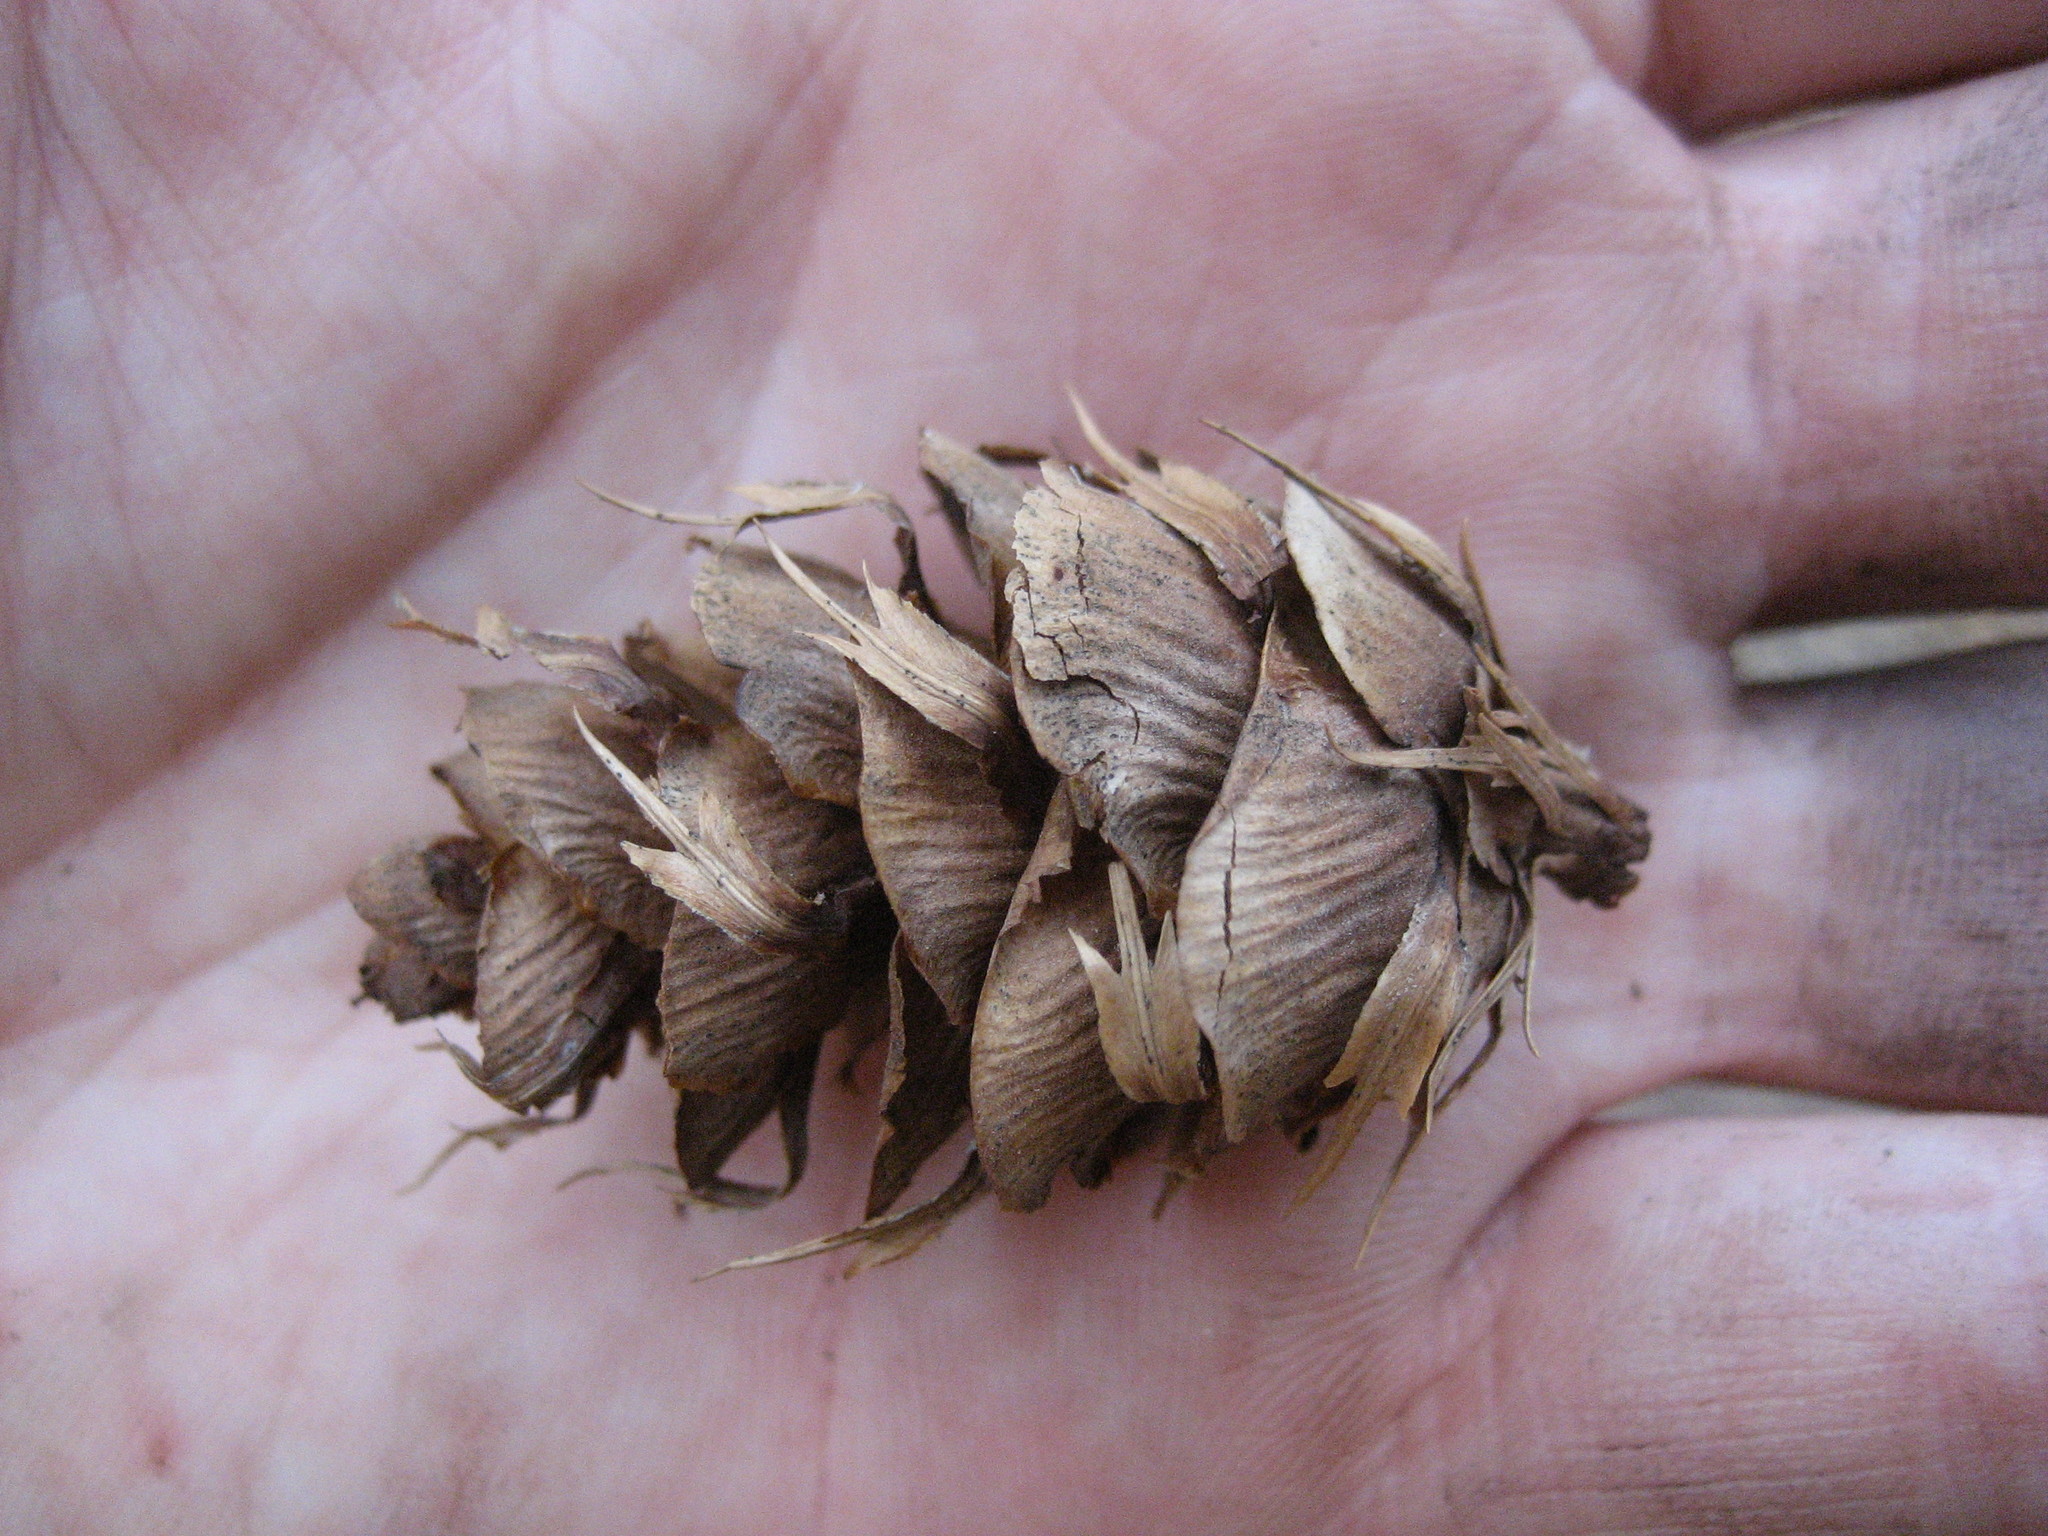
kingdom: Plantae
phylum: Tracheophyta
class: Pinopsida
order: Pinales
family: Pinaceae
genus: Pseudotsuga
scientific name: Pseudotsuga menziesii
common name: Douglas fir
